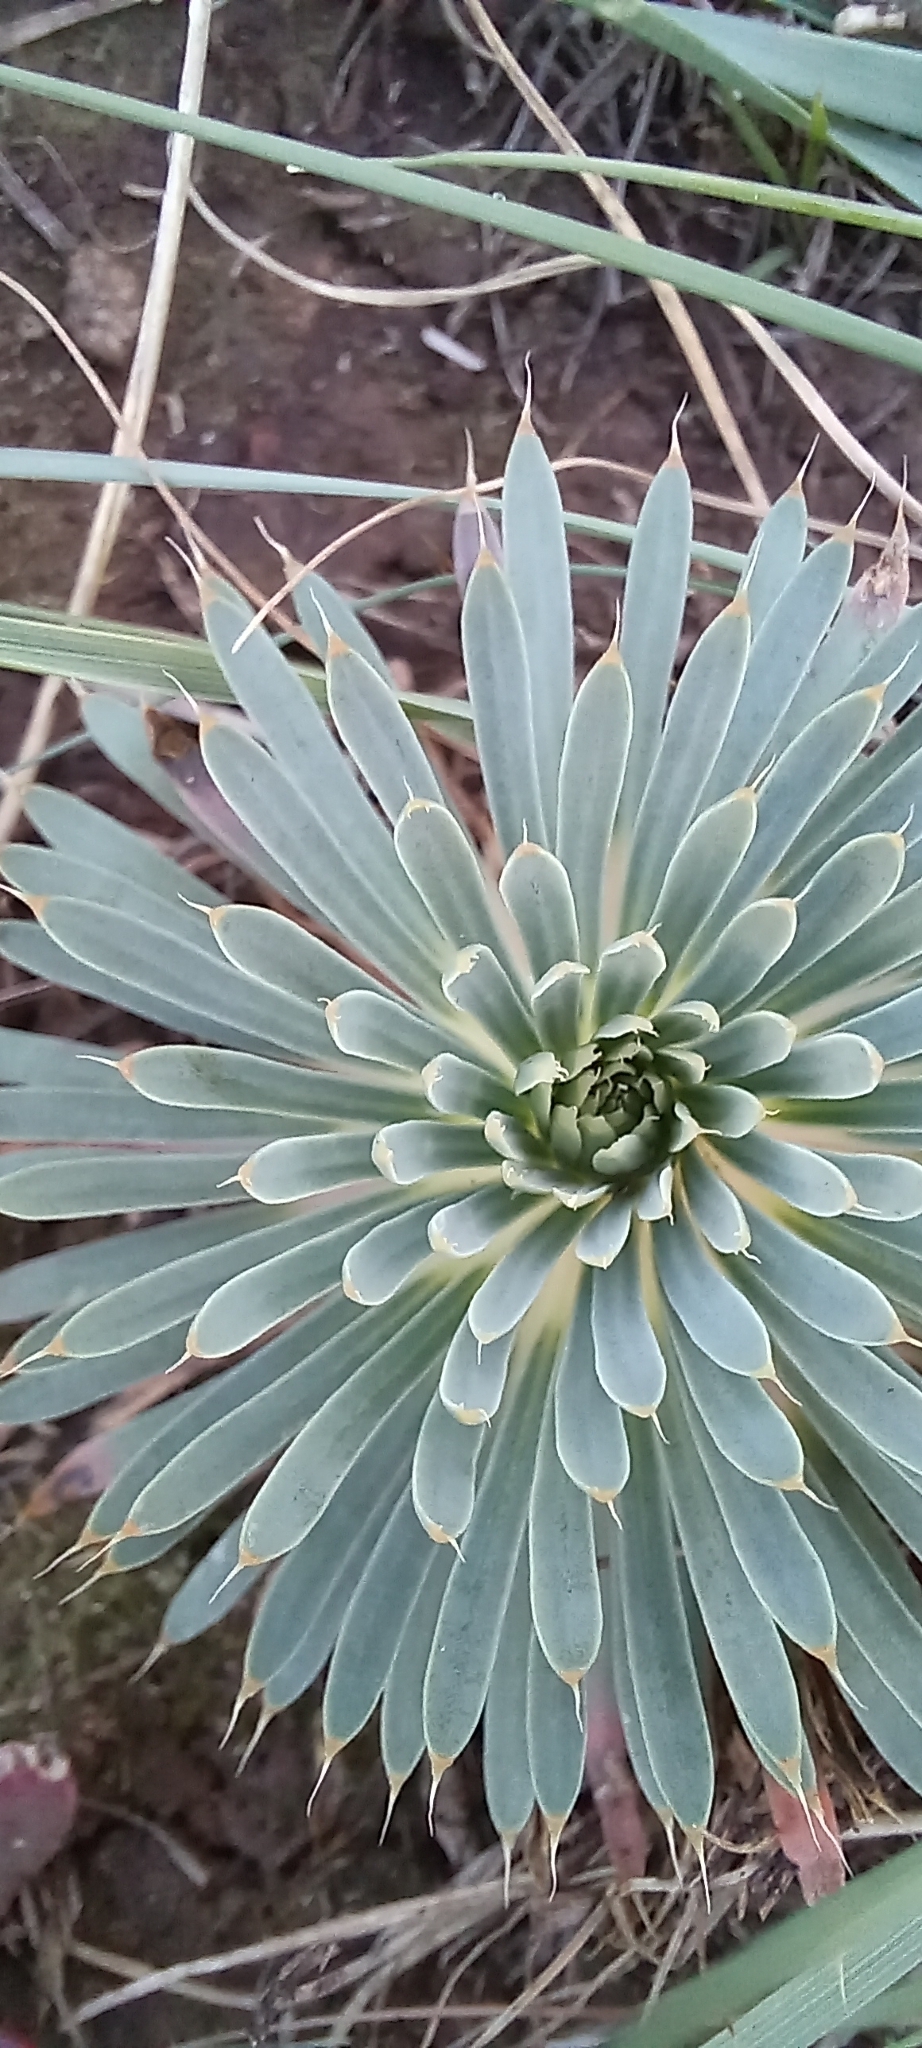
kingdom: Plantae
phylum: Tracheophyta
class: Magnoliopsida
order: Caryophyllales
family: Molluginaceae
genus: Psammotropha
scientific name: Psammotropha mucronata
